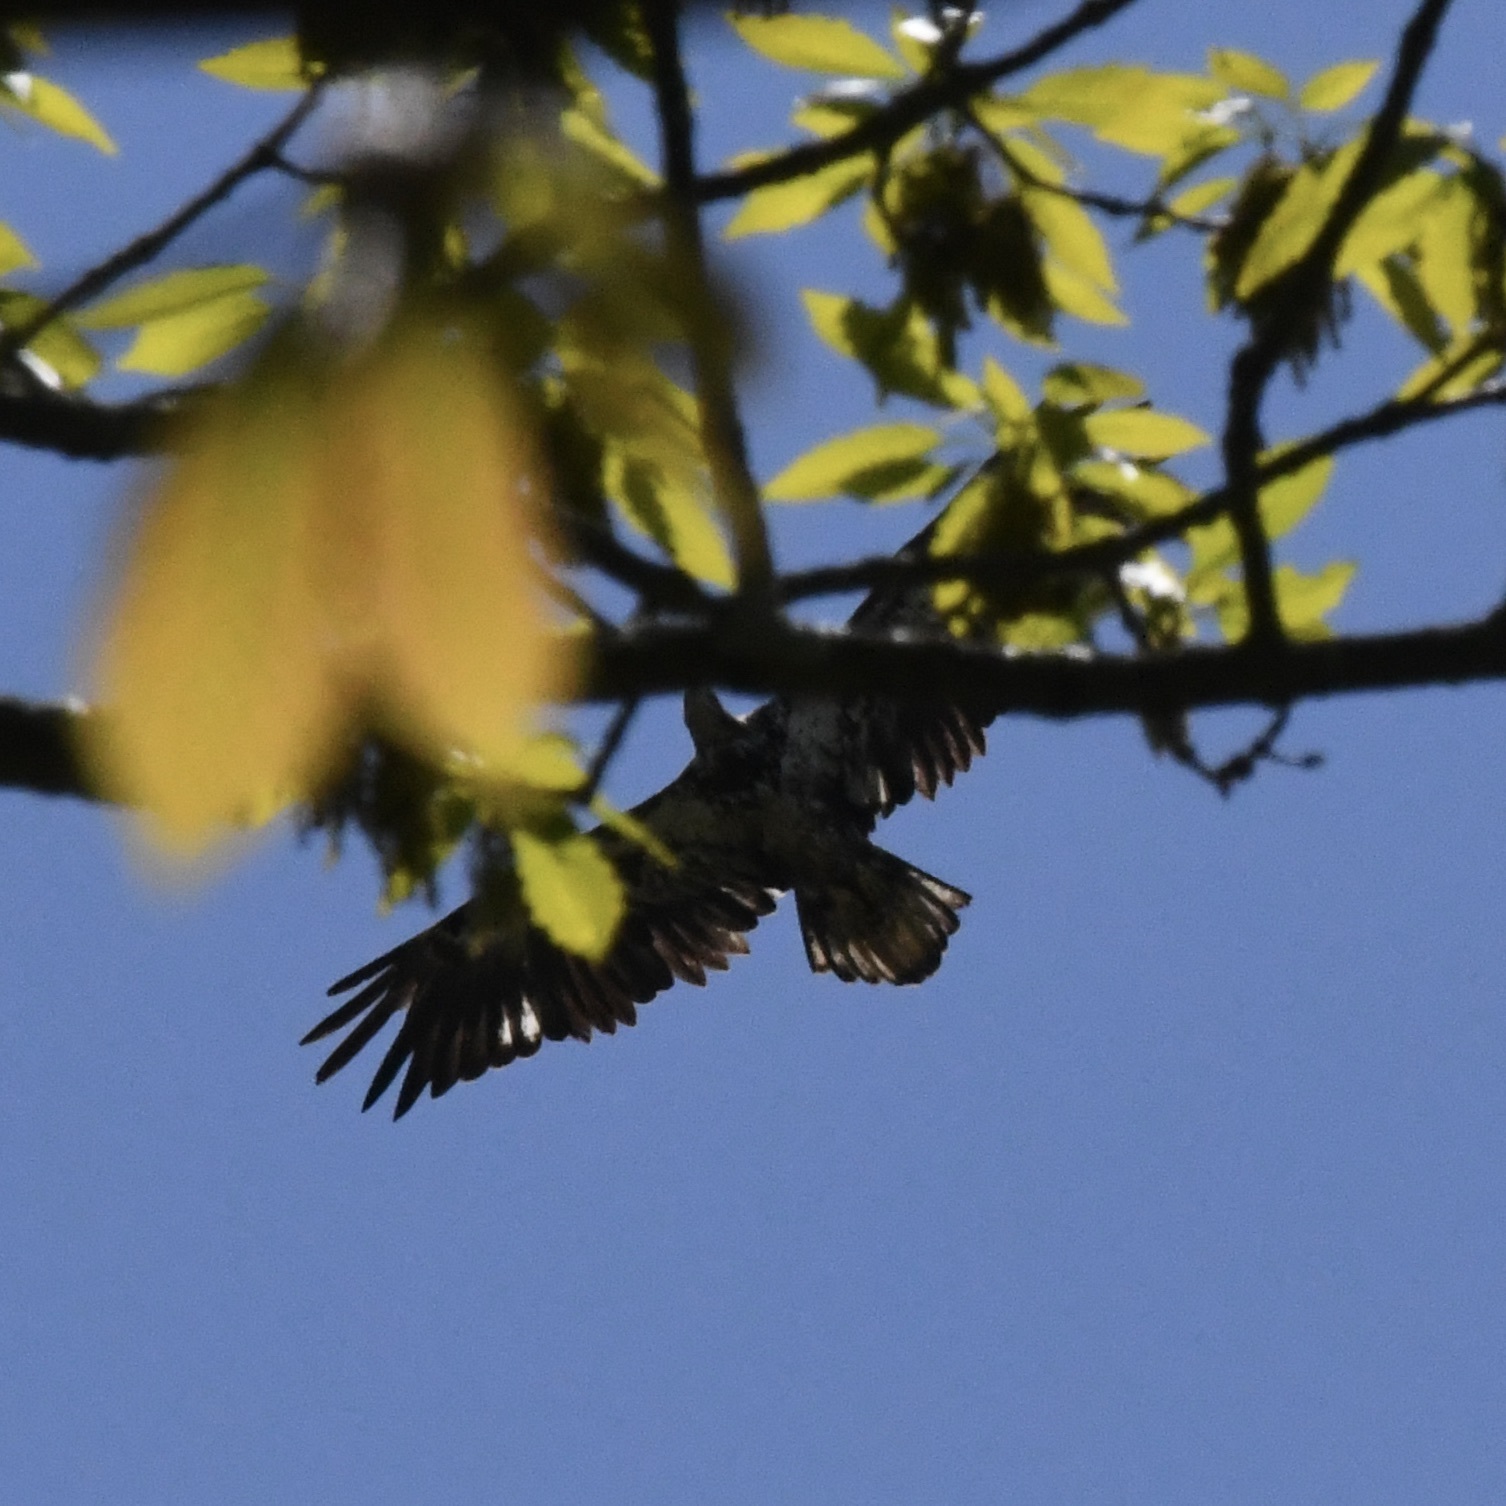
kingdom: Animalia
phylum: Chordata
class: Aves
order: Accipitriformes
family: Accipitridae
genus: Haliaeetus
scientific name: Haliaeetus leucocephalus
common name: Bald eagle
